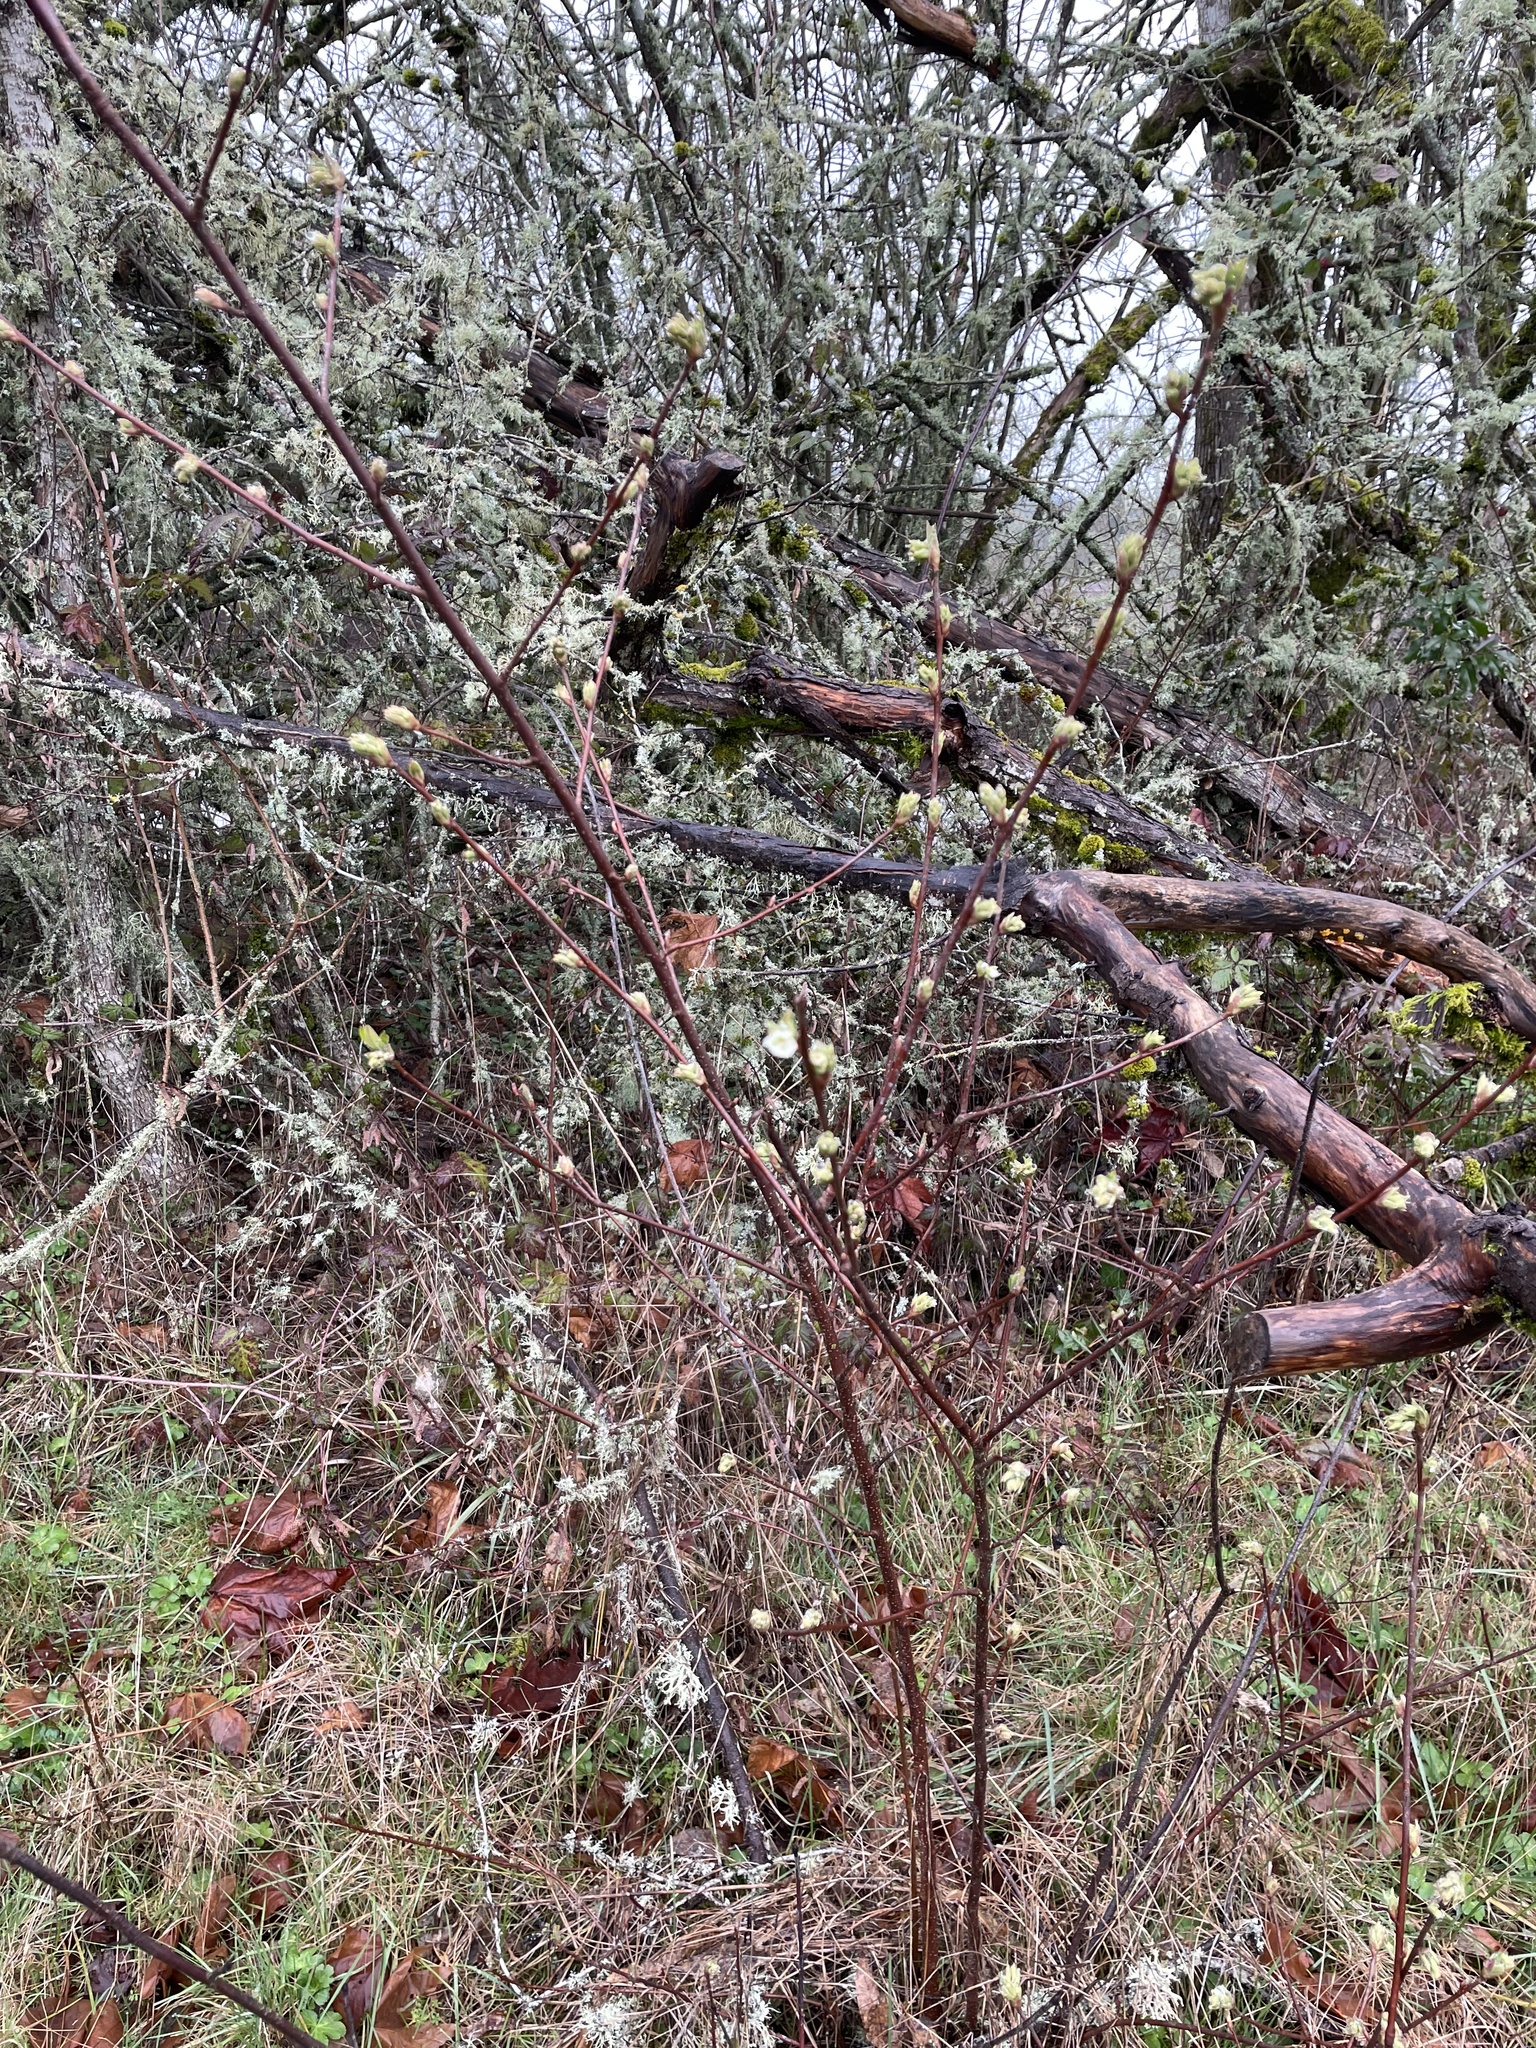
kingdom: Plantae
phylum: Tracheophyta
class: Magnoliopsida
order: Rosales
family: Rosaceae
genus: Oemleria
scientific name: Oemleria cerasiformis
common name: Osoberry
